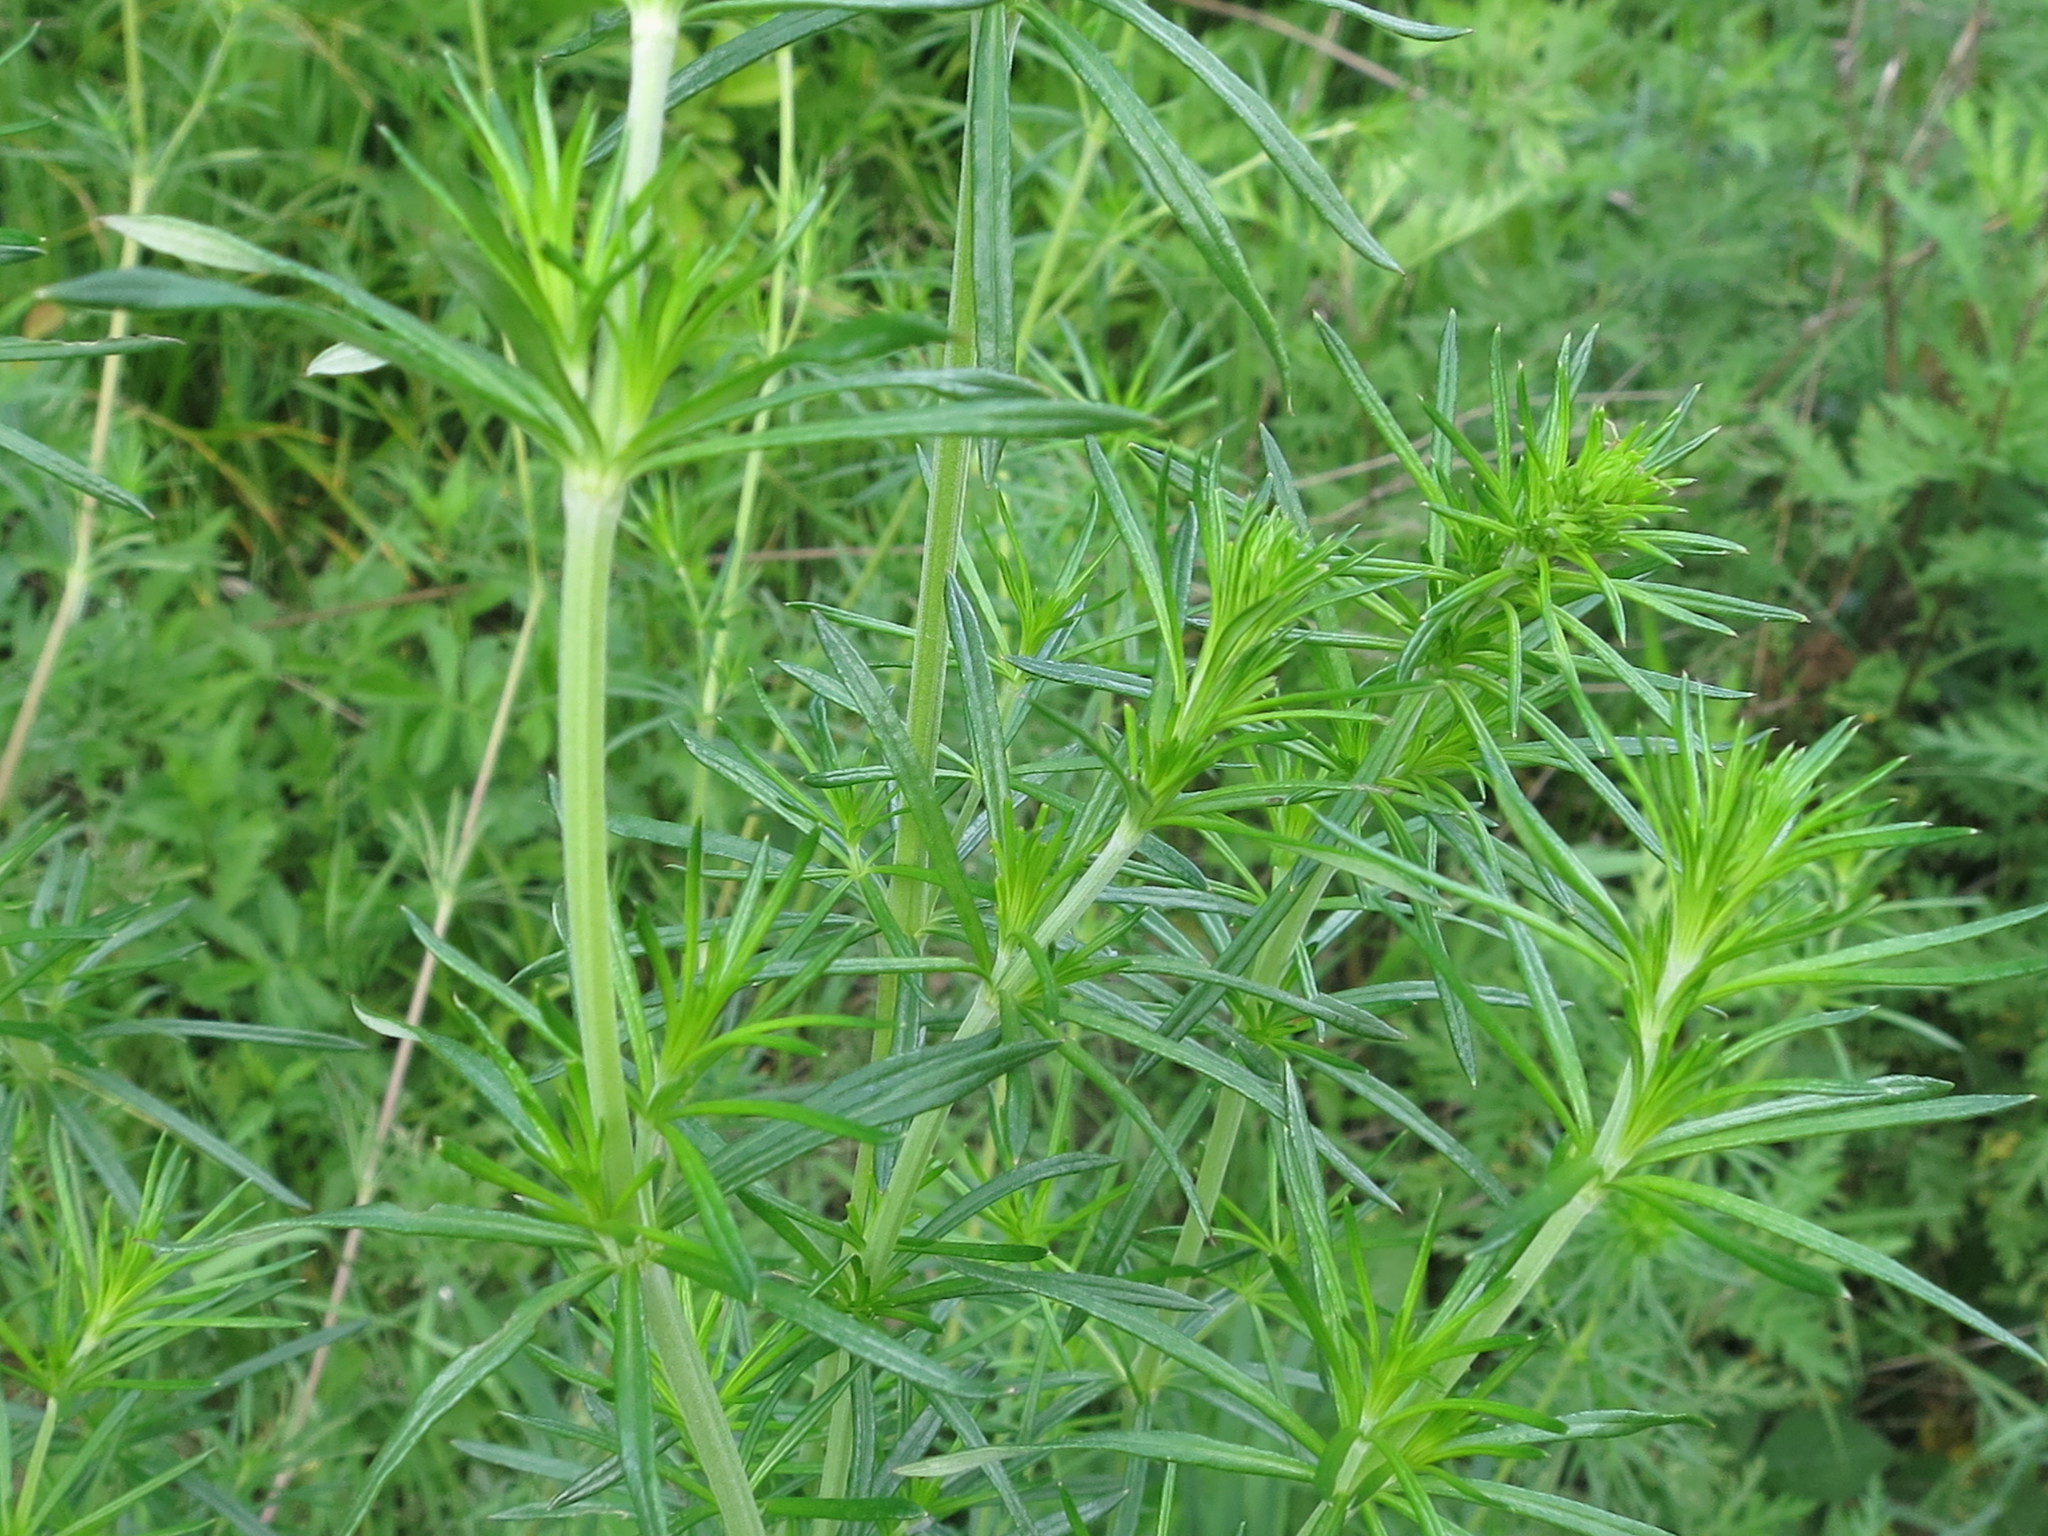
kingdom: Plantae
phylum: Tracheophyta
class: Magnoliopsida
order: Gentianales
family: Rubiaceae
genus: Galium
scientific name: Galium verum
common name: Lady's bedstraw
